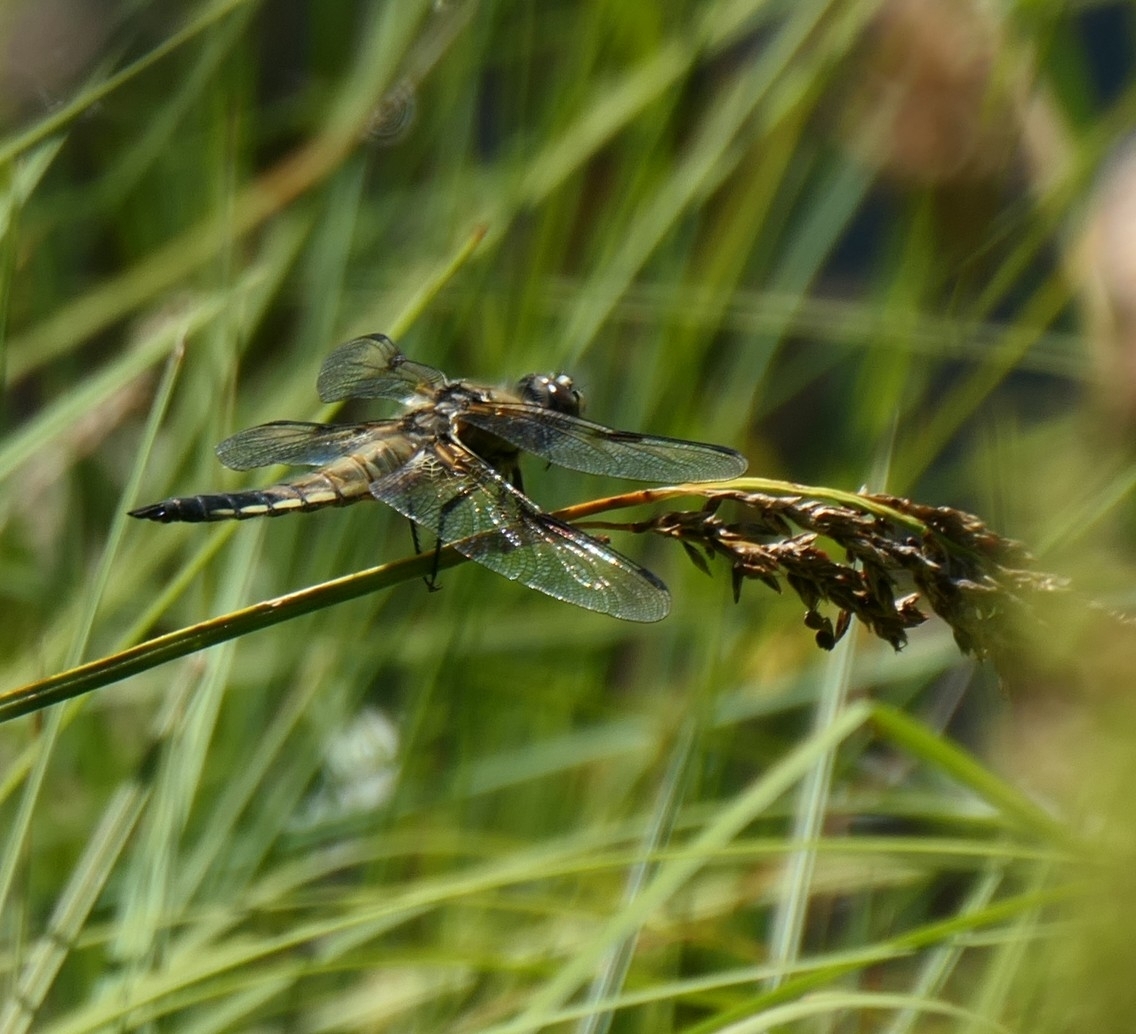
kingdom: Animalia
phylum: Arthropoda
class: Insecta
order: Odonata
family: Libellulidae
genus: Libellula
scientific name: Libellula quadrimaculata
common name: Four-spotted chaser
